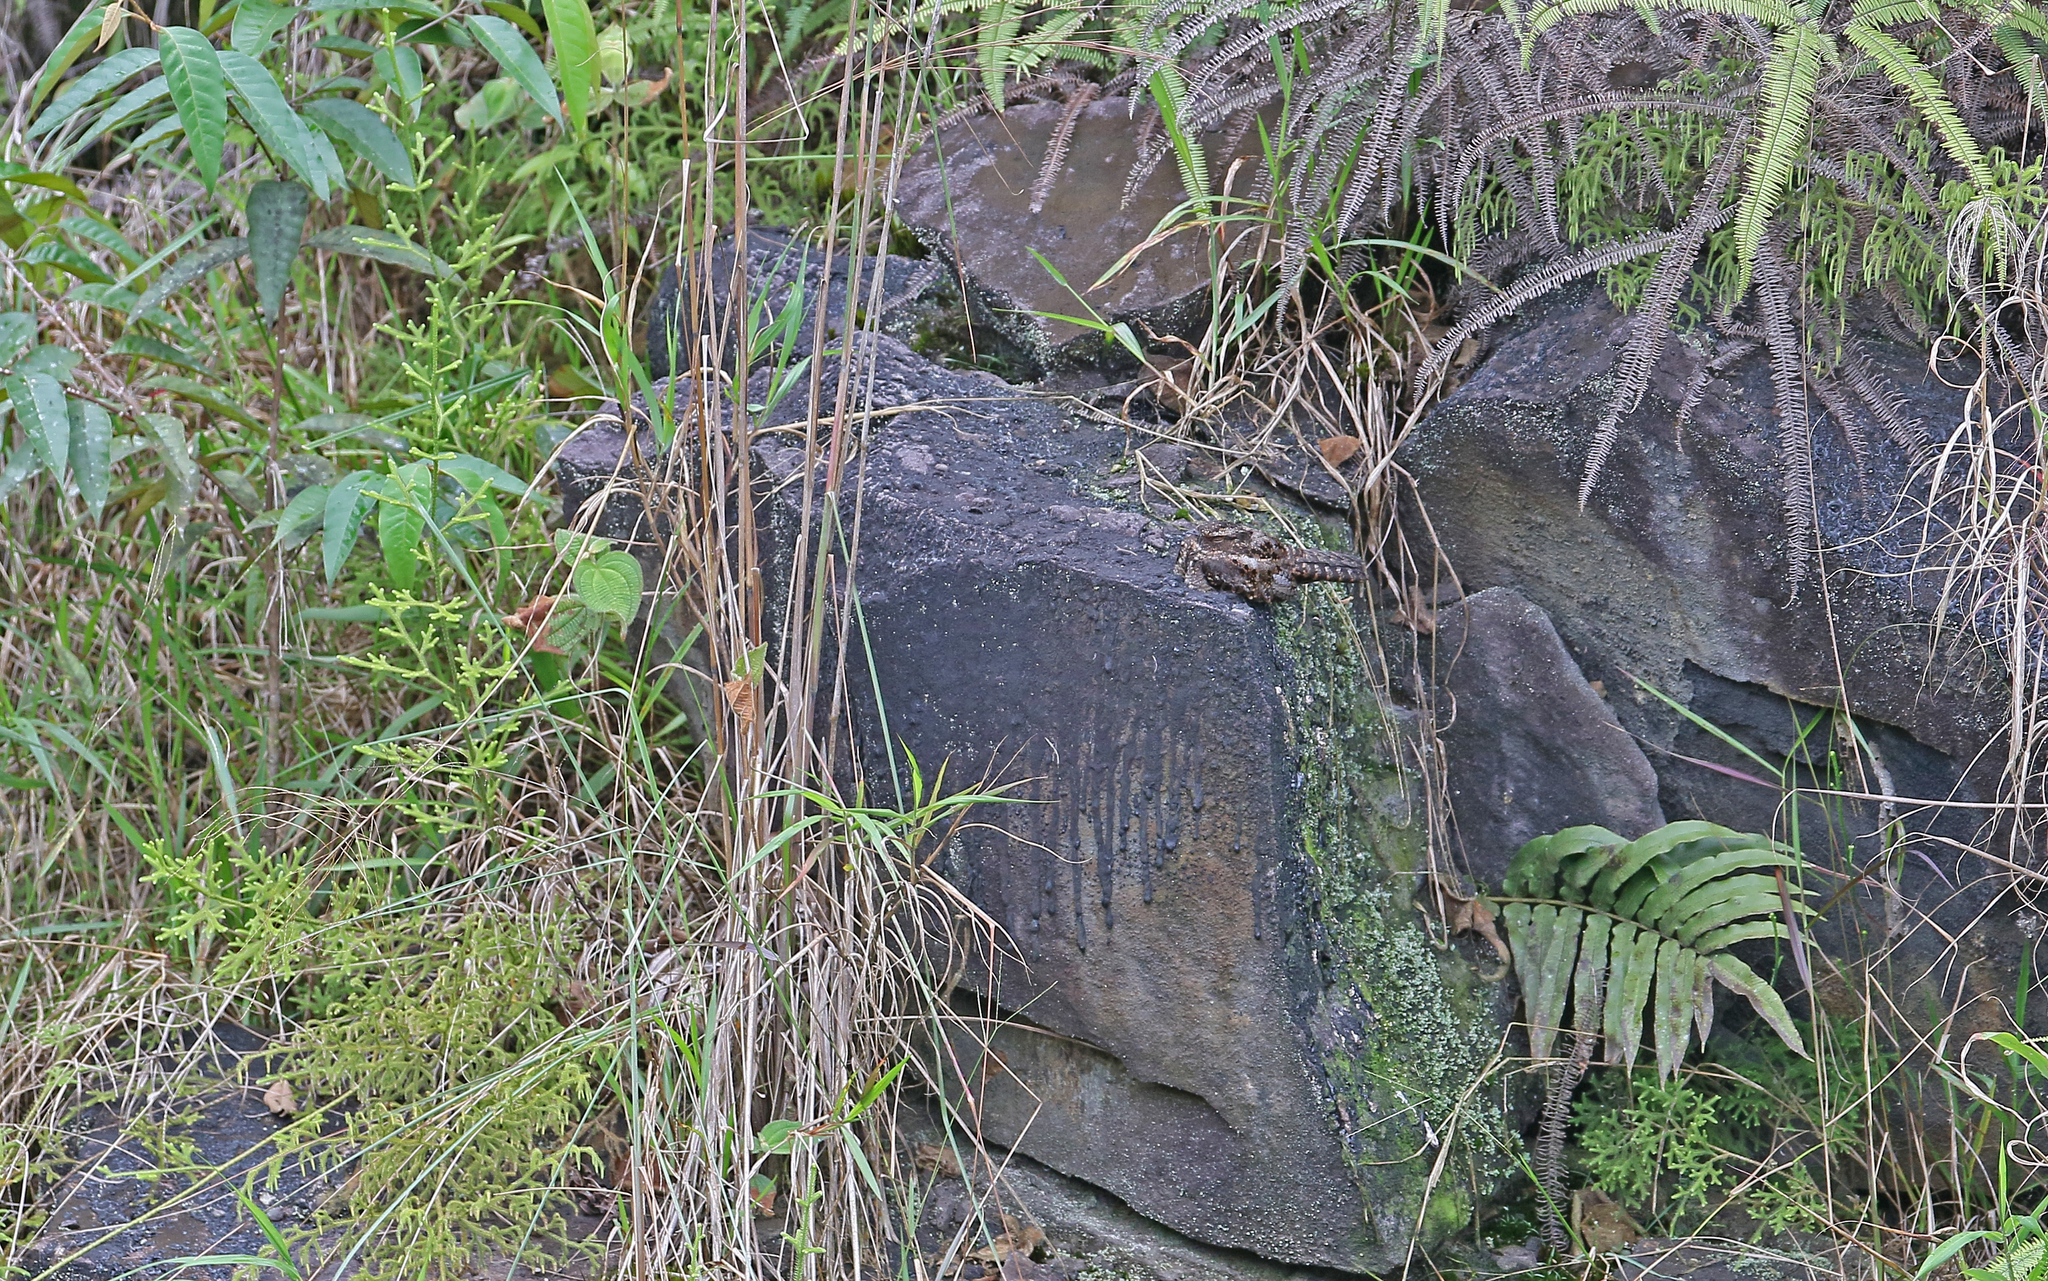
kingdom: Animalia
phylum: Chordata
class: Aves
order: Caprimulgiformes
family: Caprimulgidae
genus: Nyctipolus
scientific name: Nyctipolus nigrescens
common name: Blackish nightjar
